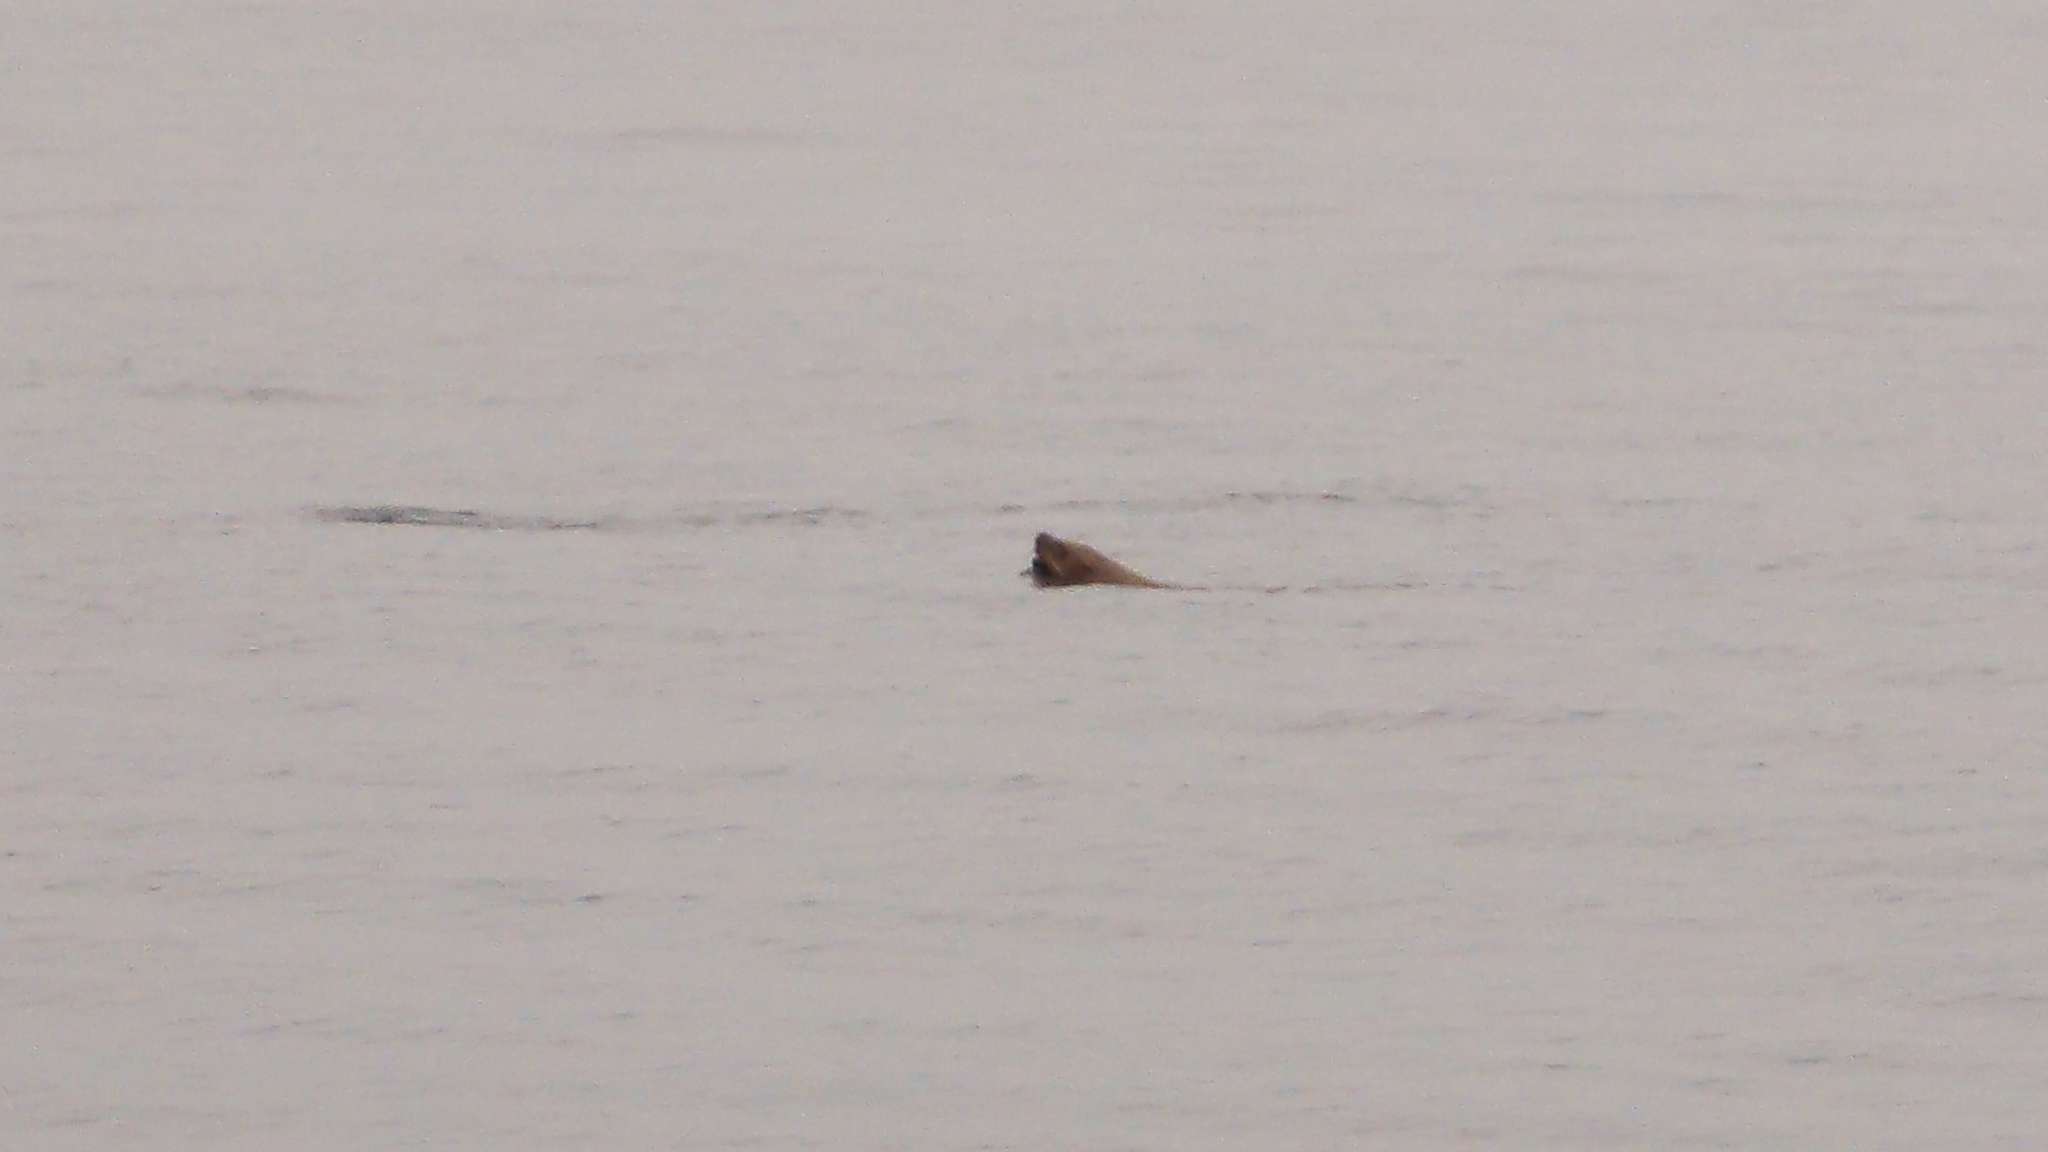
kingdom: Animalia
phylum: Chordata
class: Mammalia
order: Carnivora
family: Otariidae
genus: Eumetopias
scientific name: Eumetopias jubatus
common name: Steller sea lion
